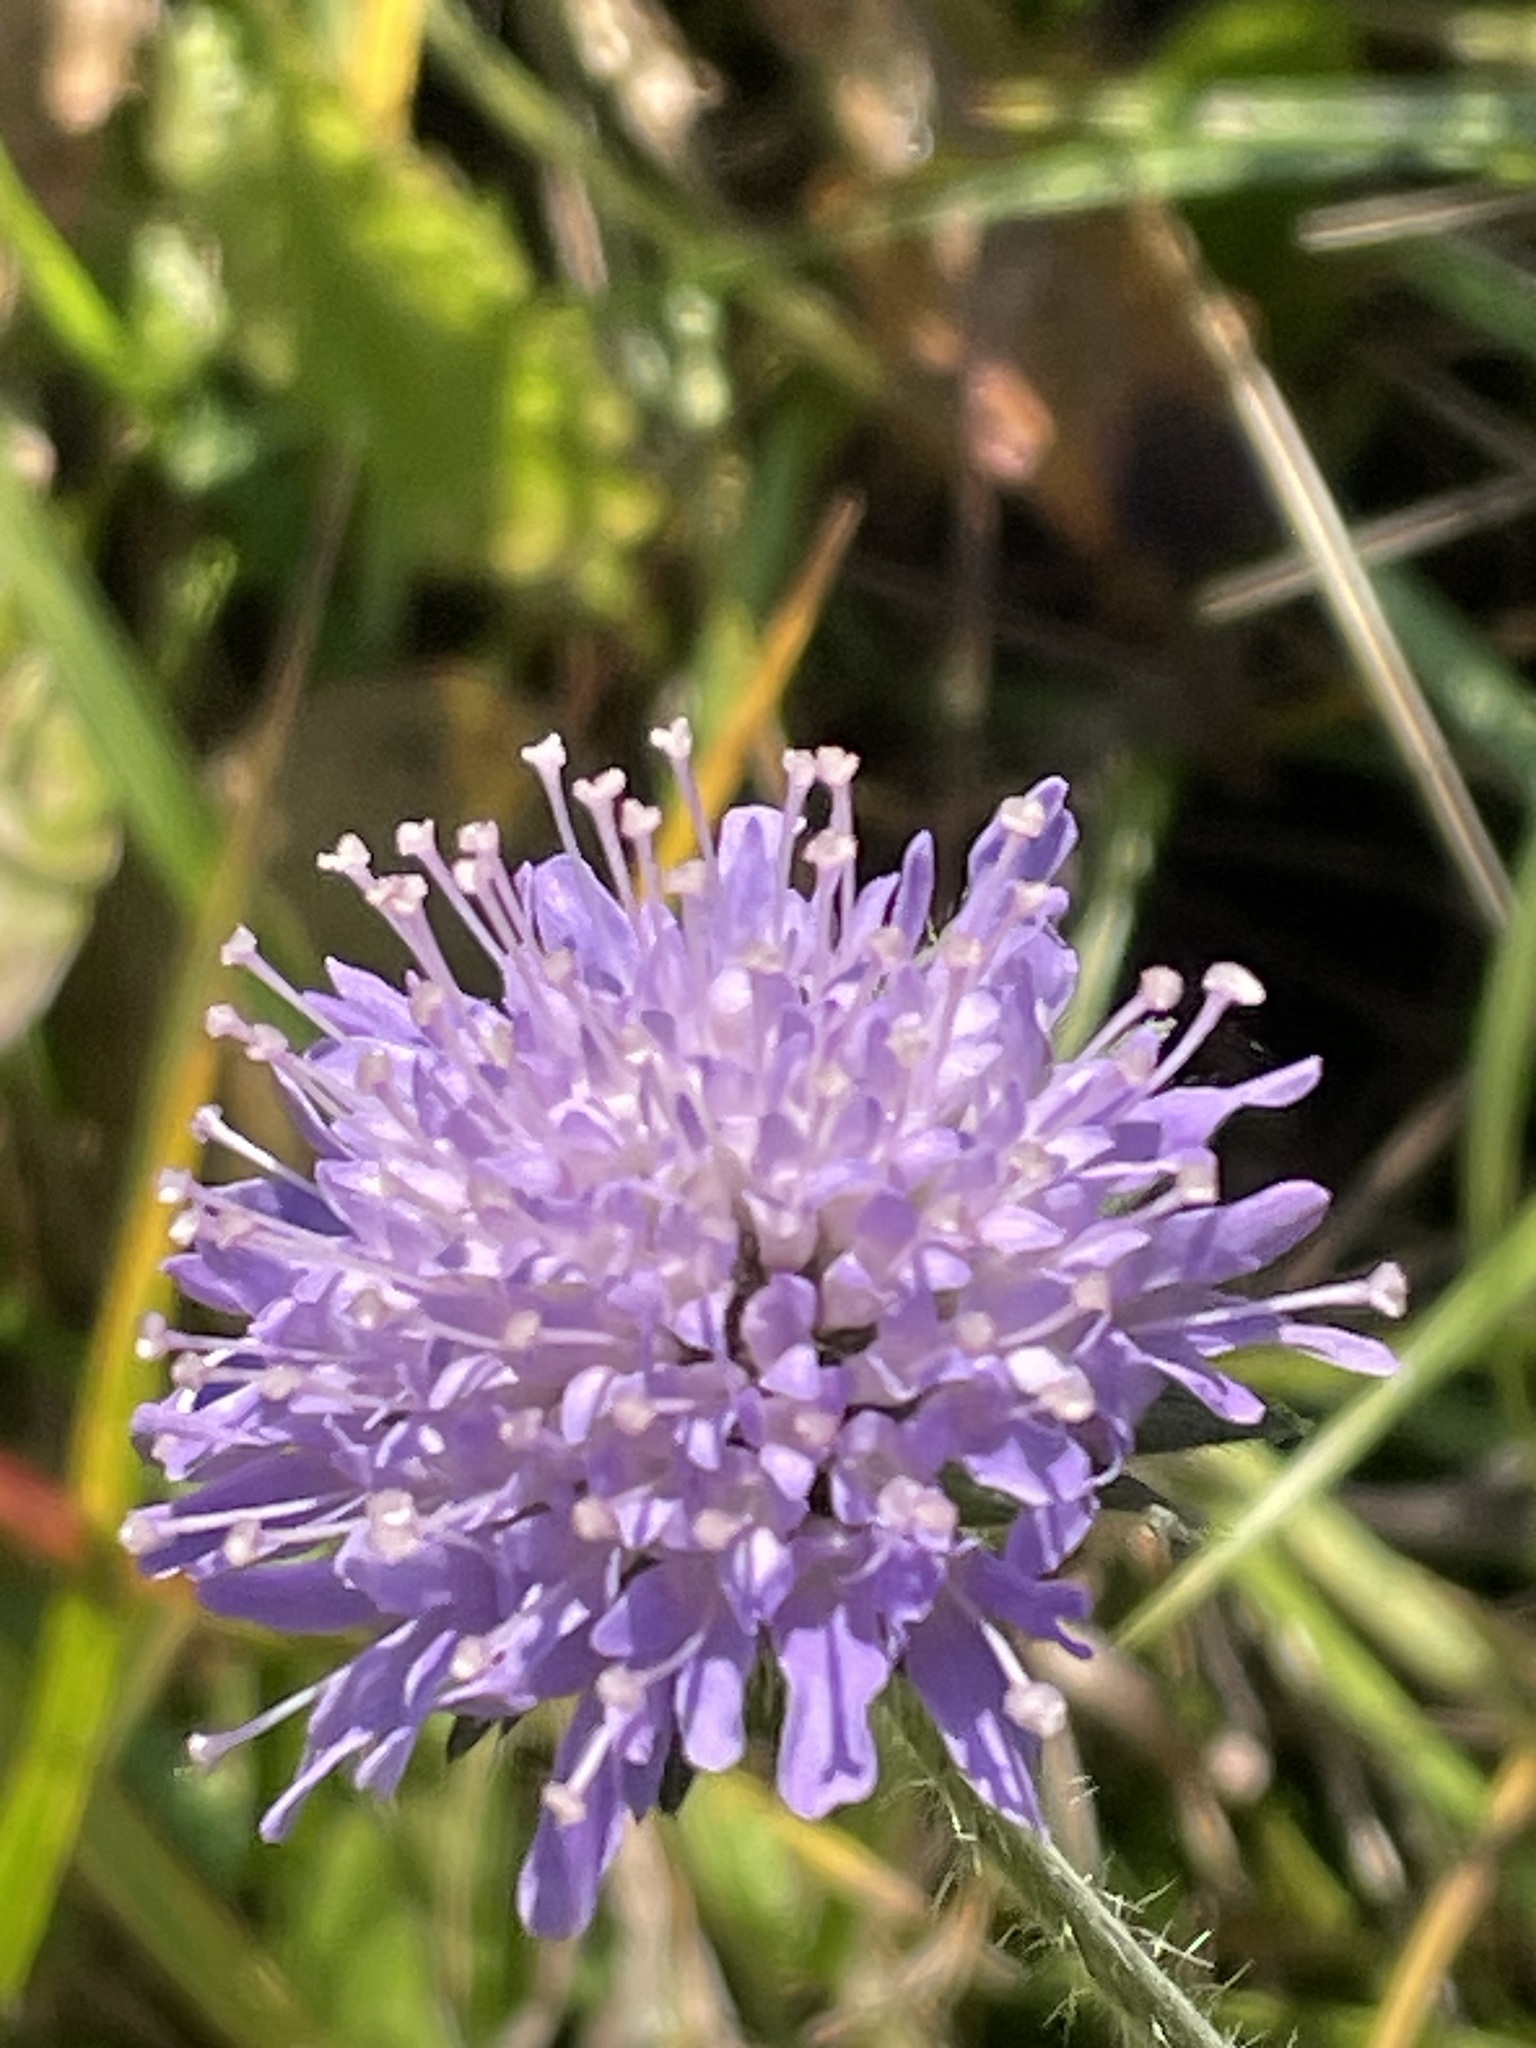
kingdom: Plantae
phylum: Tracheophyta
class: Magnoliopsida
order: Dipsacales
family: Caprifoliaceae
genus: Knautia
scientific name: Knautia arvensis
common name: Field scabiosa
